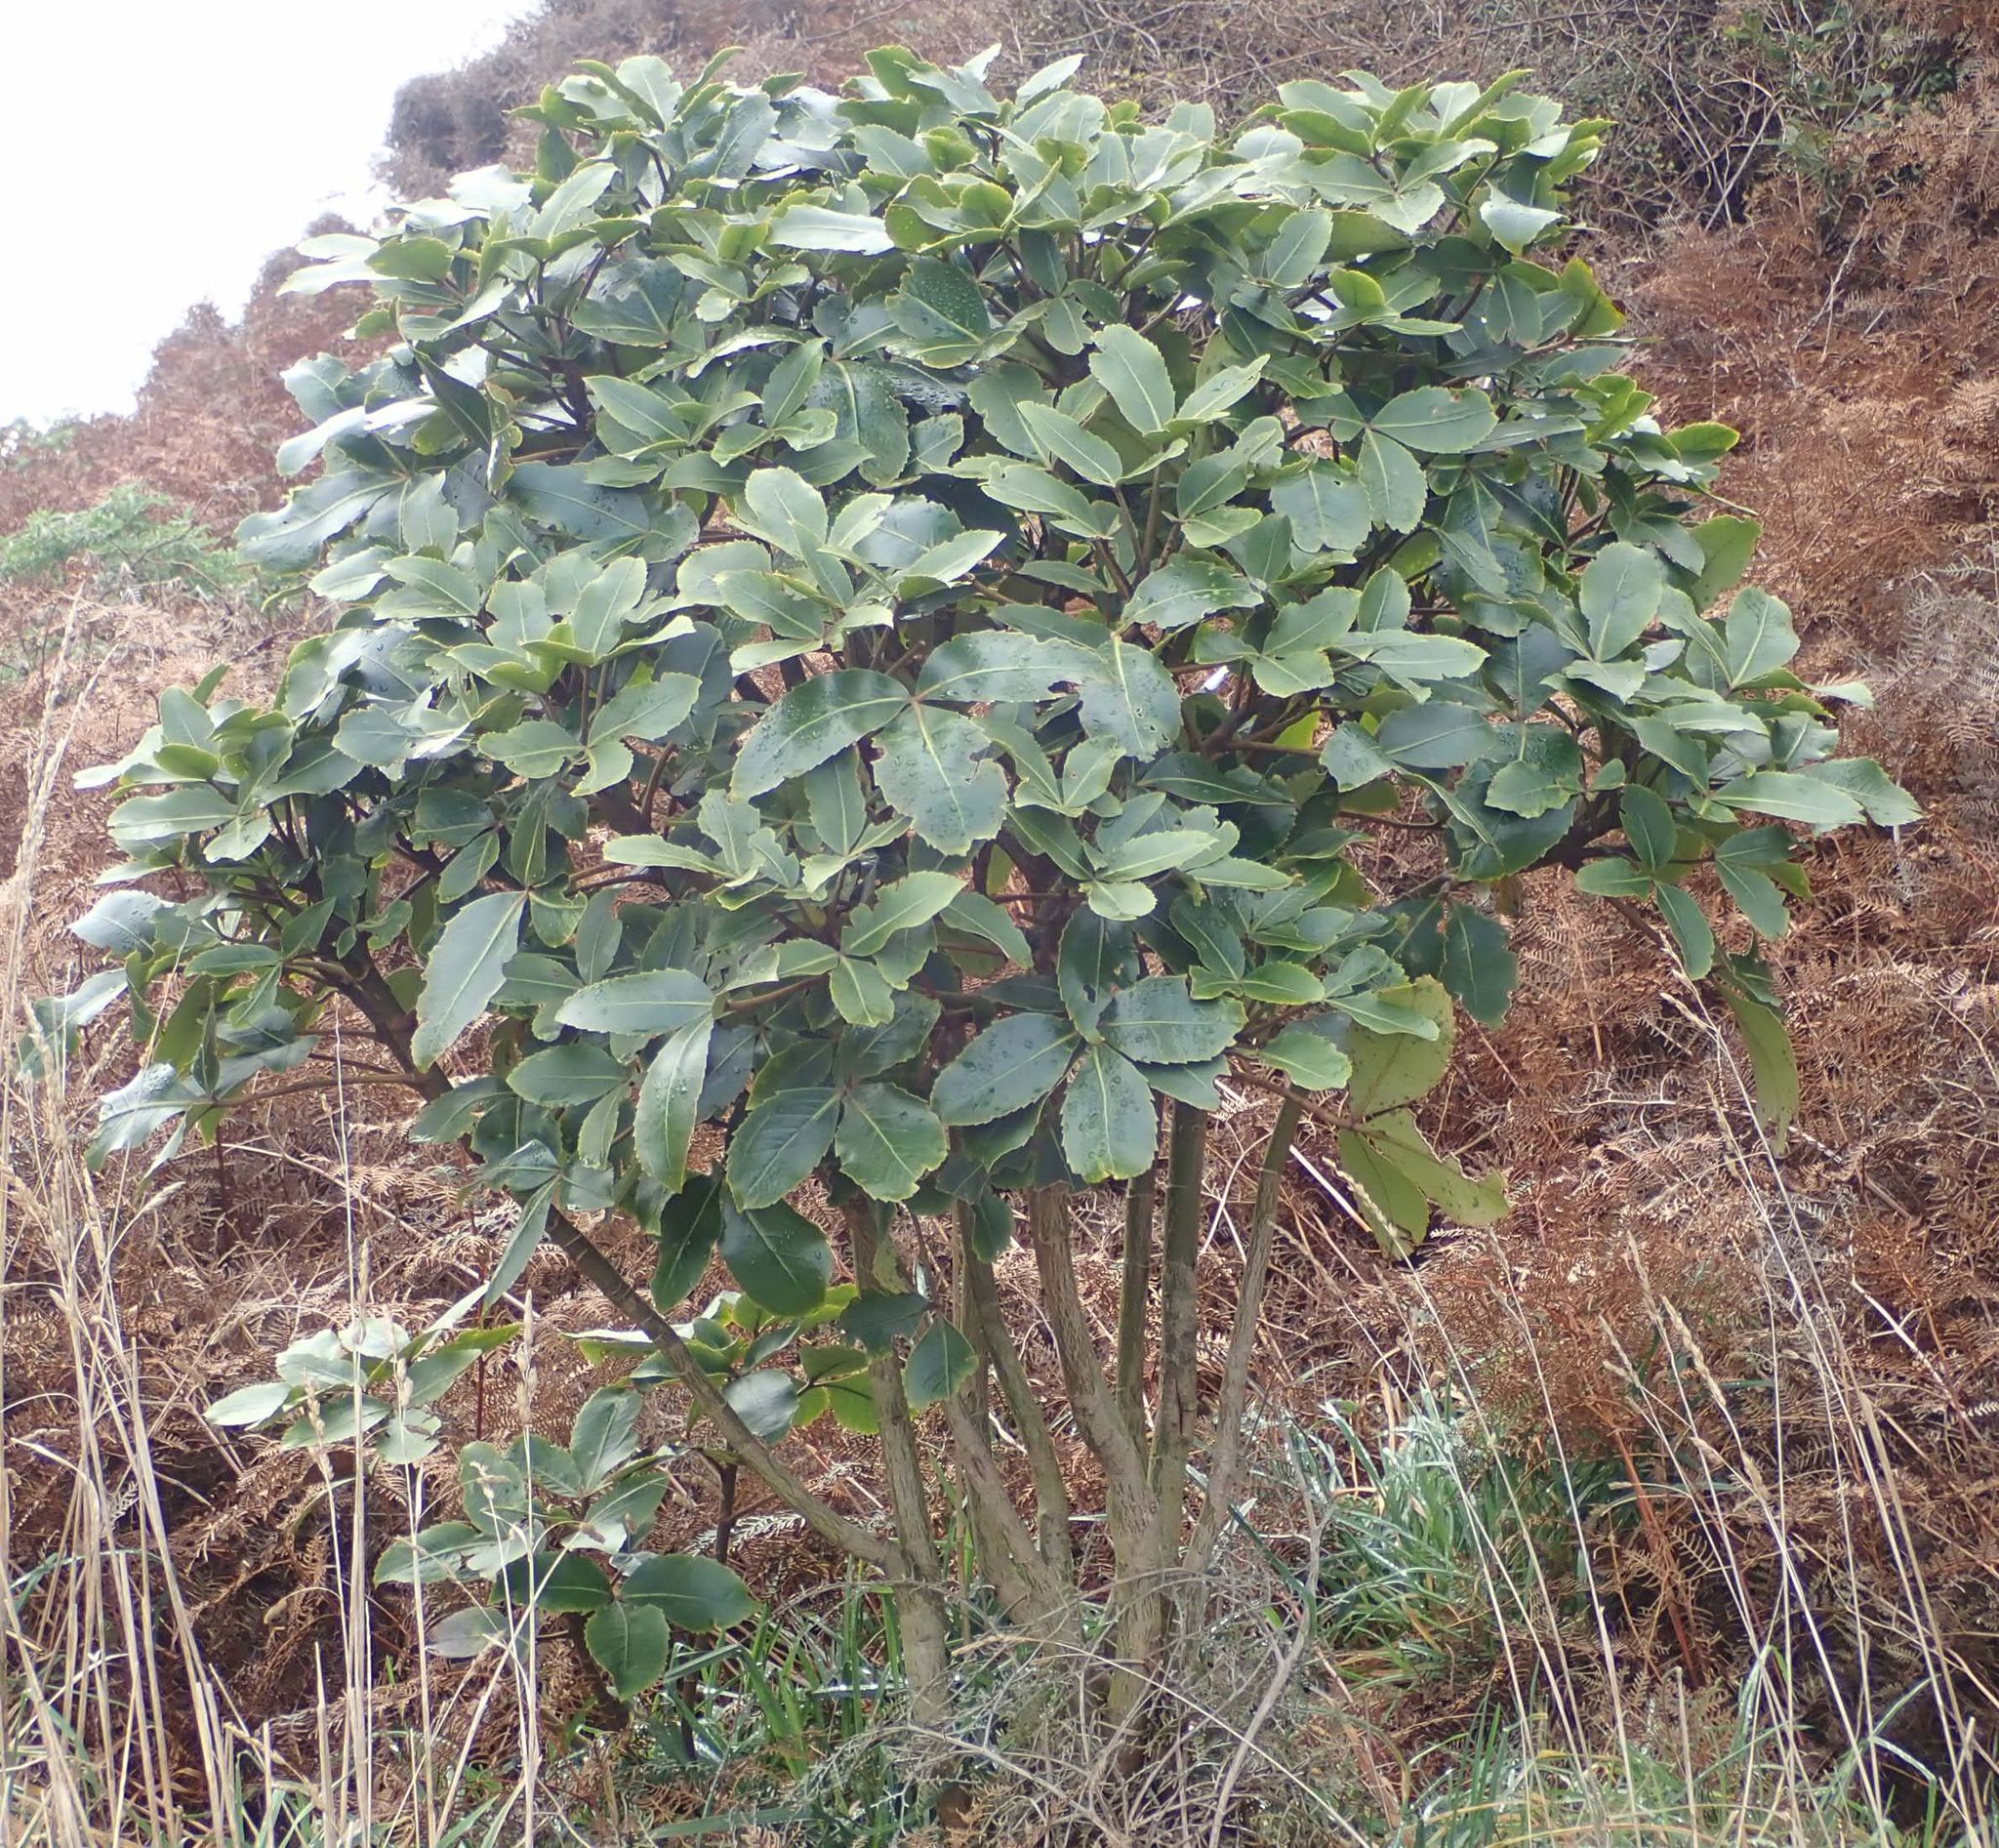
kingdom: Plantae
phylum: Tracheophyta
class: Magnoliopsida
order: Apiales
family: Araliaceae
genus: Neopanax
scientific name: Neopanax colensoi
